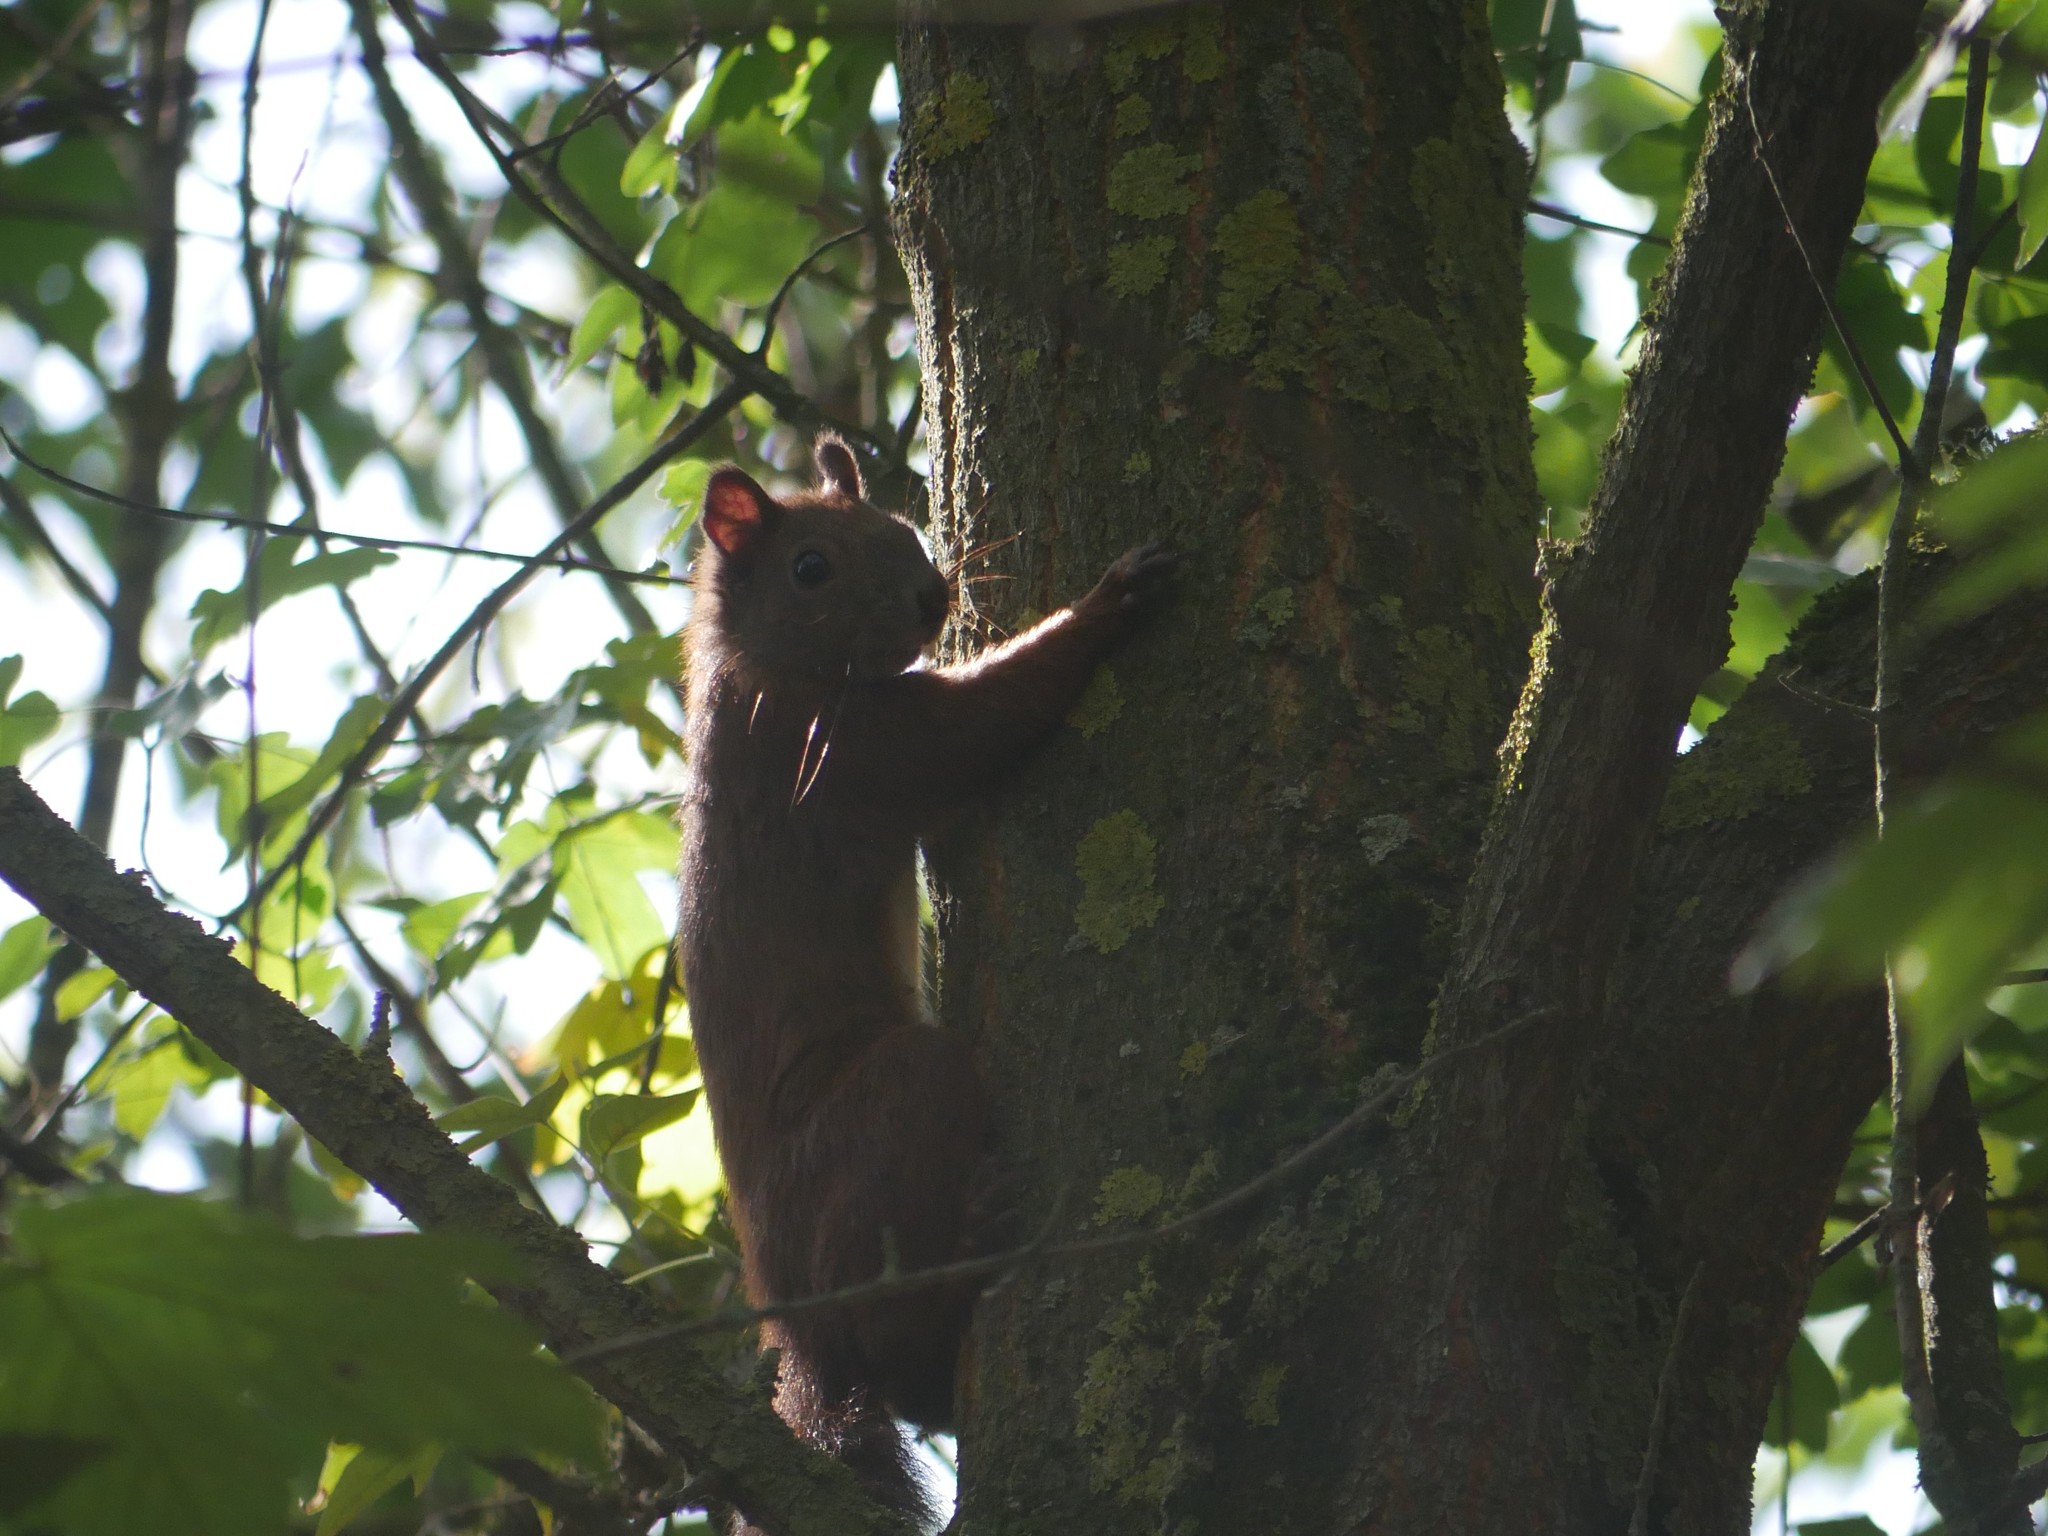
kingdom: Animalia
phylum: Chordata
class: Mammalia
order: Rodentia
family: Sciuridae
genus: Sciurus
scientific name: Sciurus vulgaris
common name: Eurasian red squirrel
